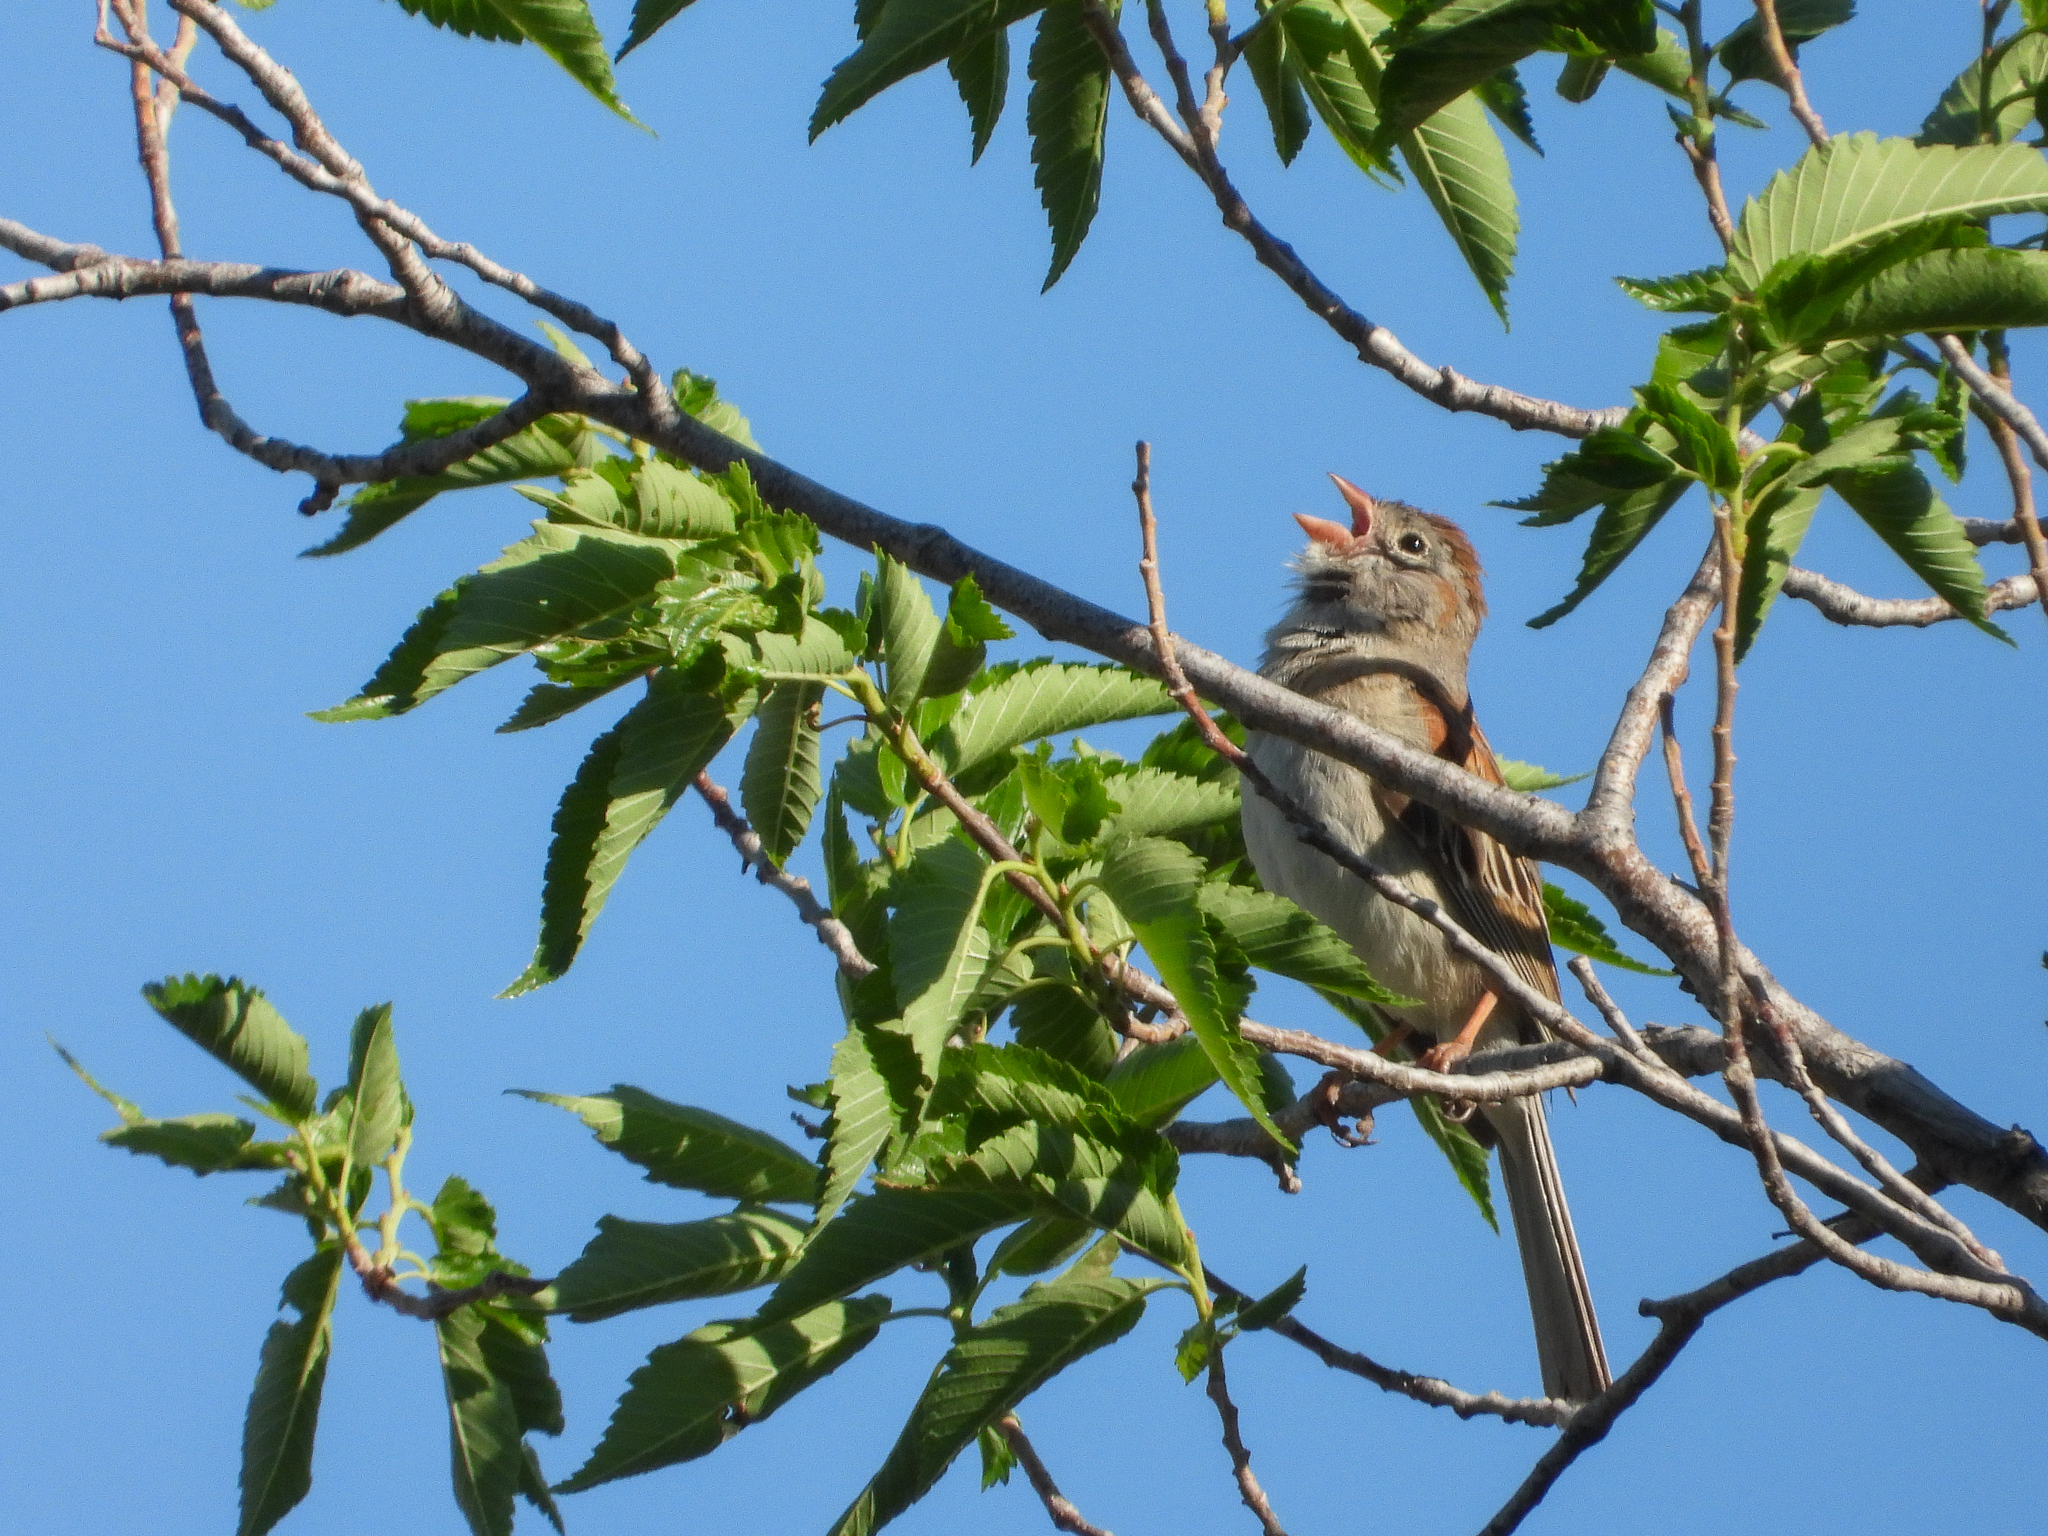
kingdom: Animalia
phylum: Chordata
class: Aves
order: Passeriformes
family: Passerellidae
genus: Spizella
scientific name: Spizella pusilla
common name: Field sparrow
